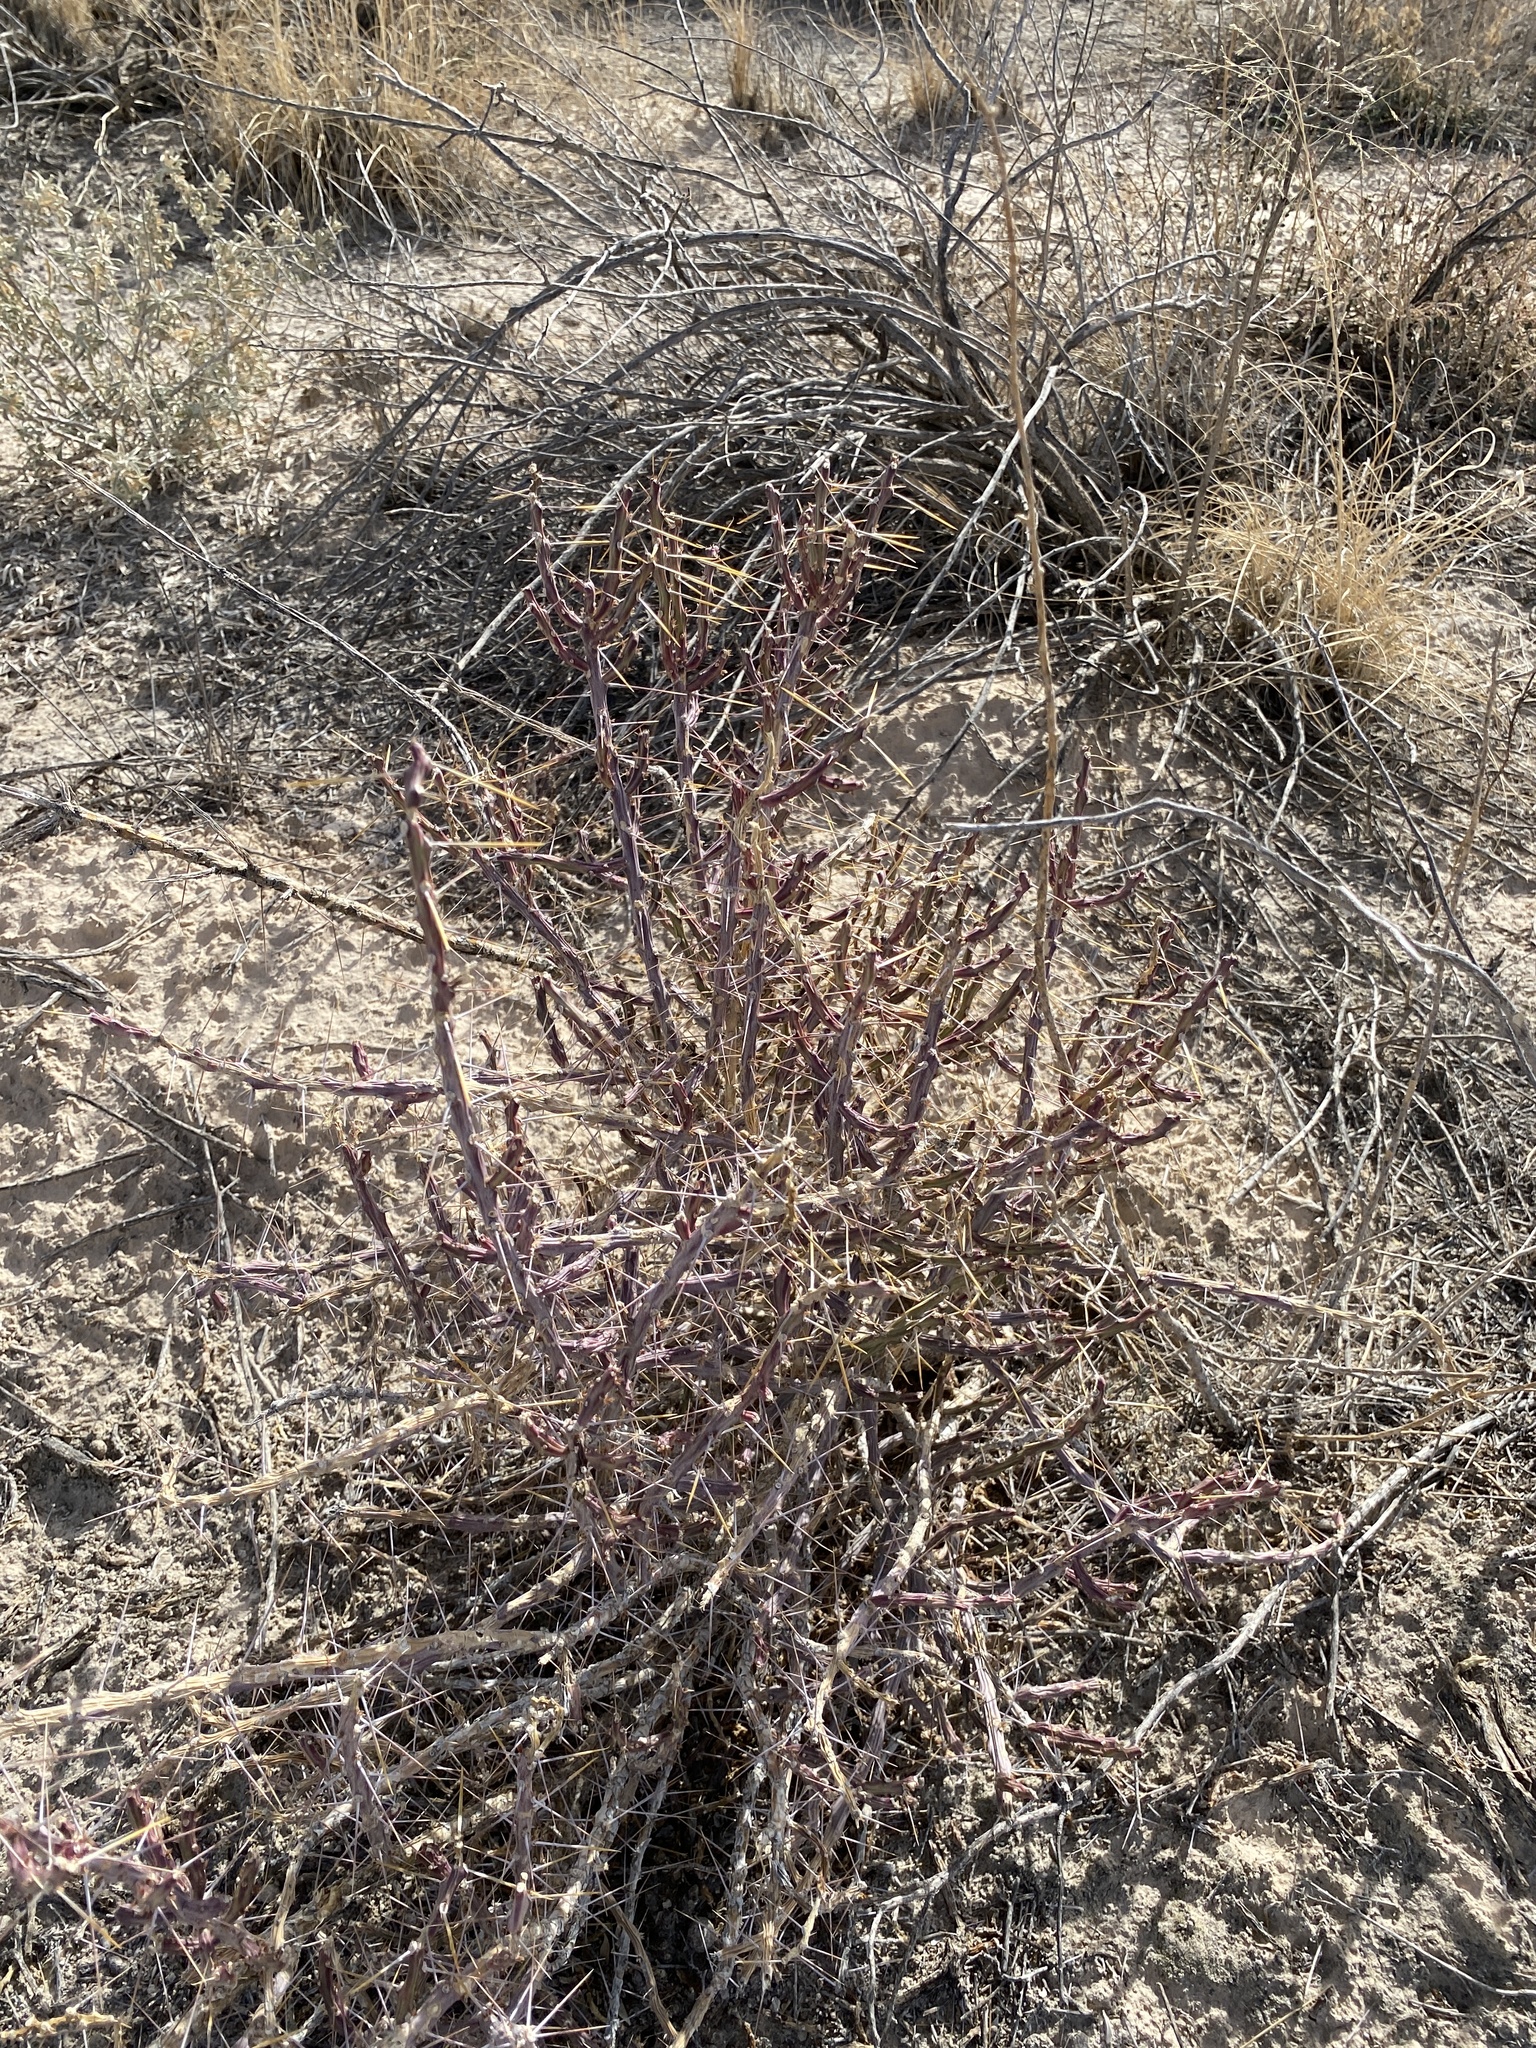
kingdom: Plantae
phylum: Tracheophyta
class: Magnoliopsida
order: Caryophyllales
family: Cactaceae
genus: Cylindropuntia
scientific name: Cylindropuntia leptocaulis
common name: Christmas cactus
